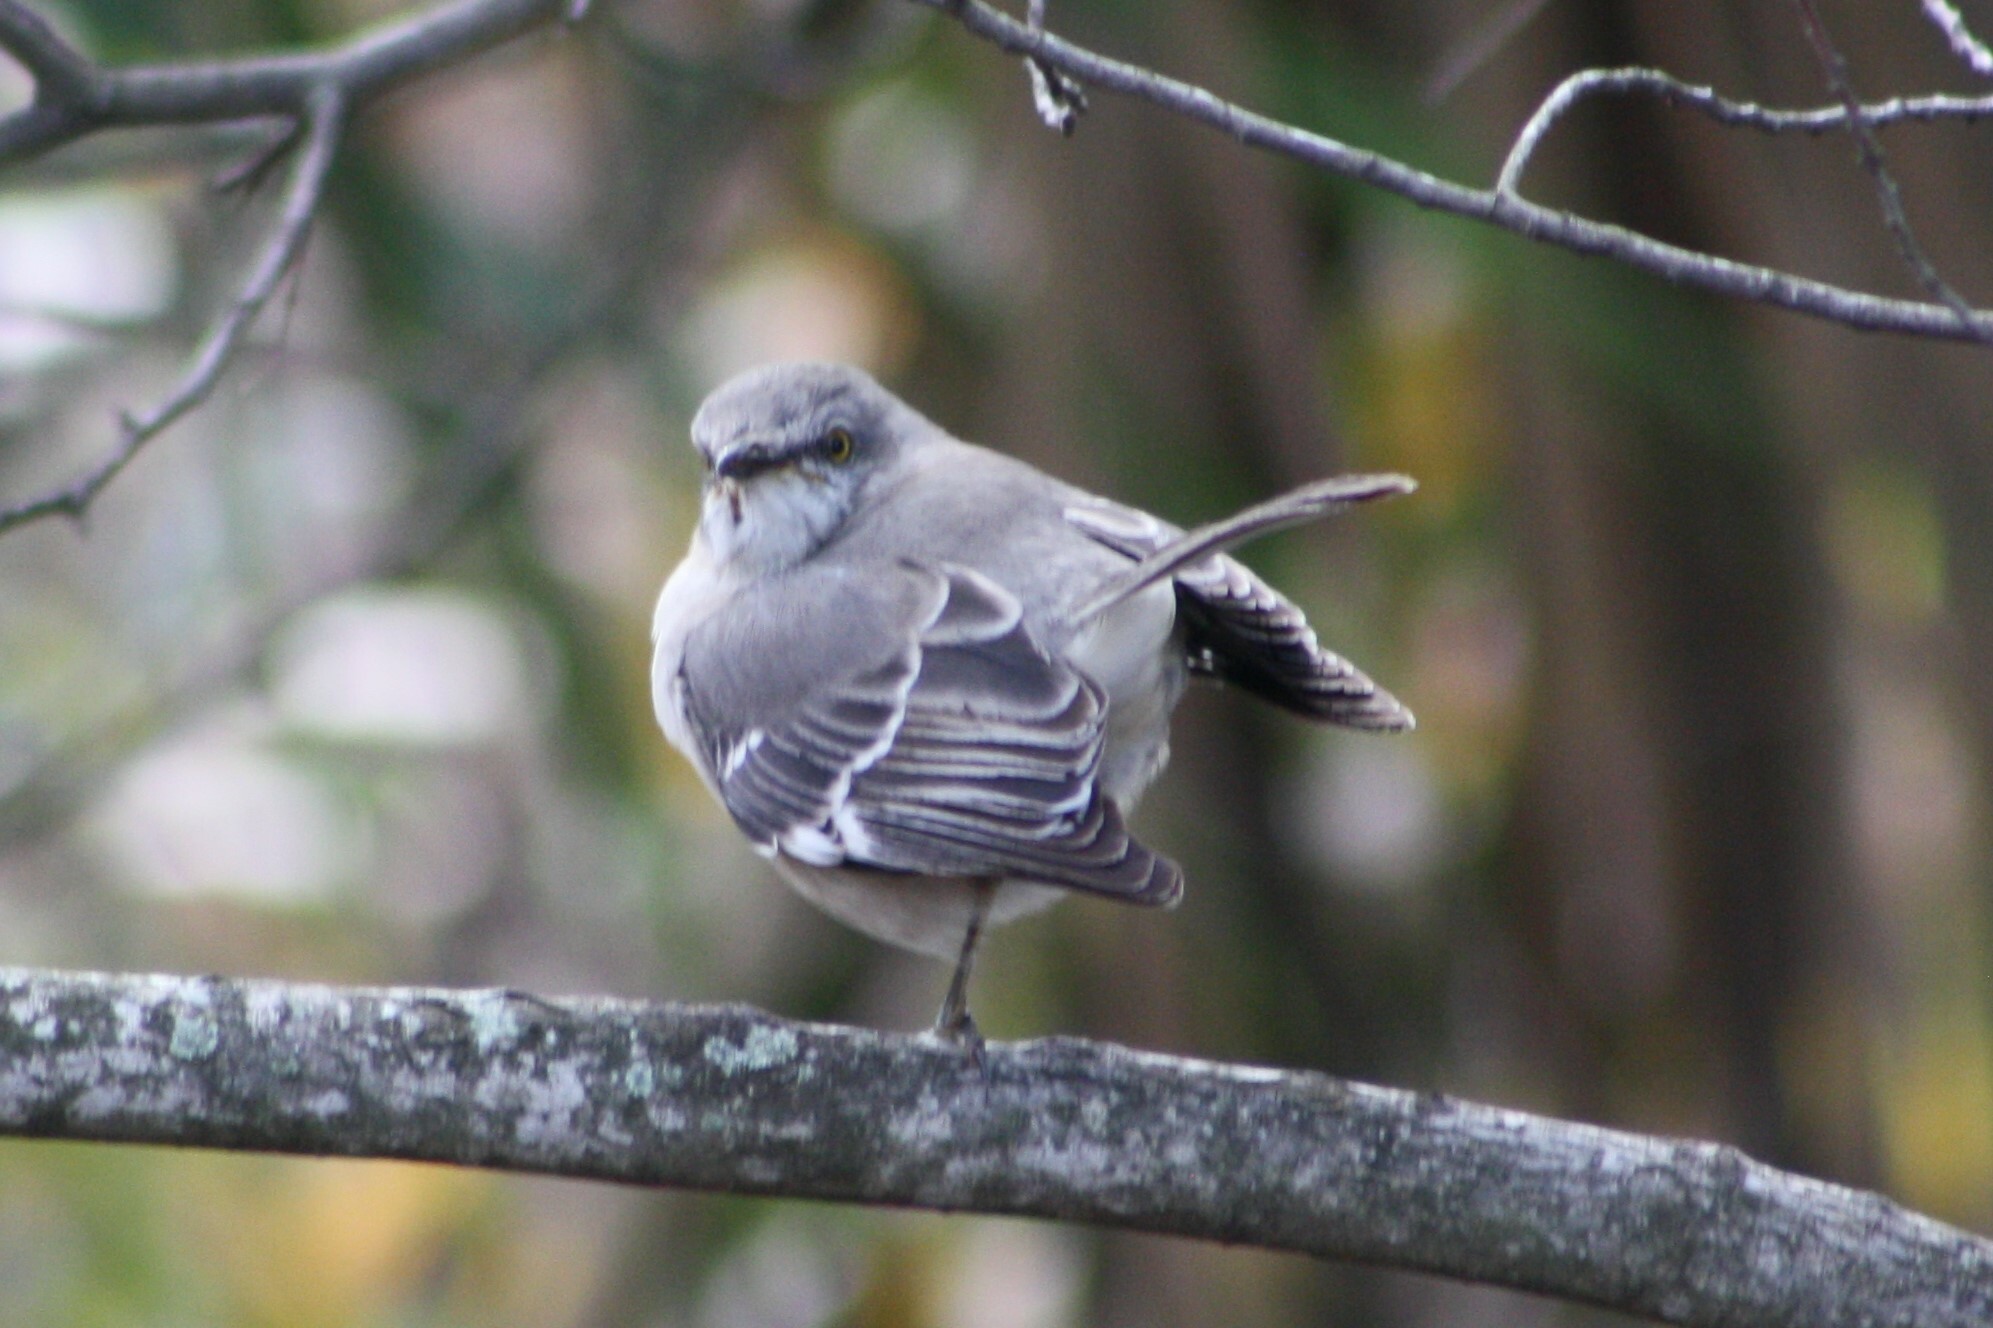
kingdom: Animalia
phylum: Chordata
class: Aves
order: Passeriformes
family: Mimidae
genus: Mimus
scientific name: Mimus polyglottos
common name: Northern mockingbird
